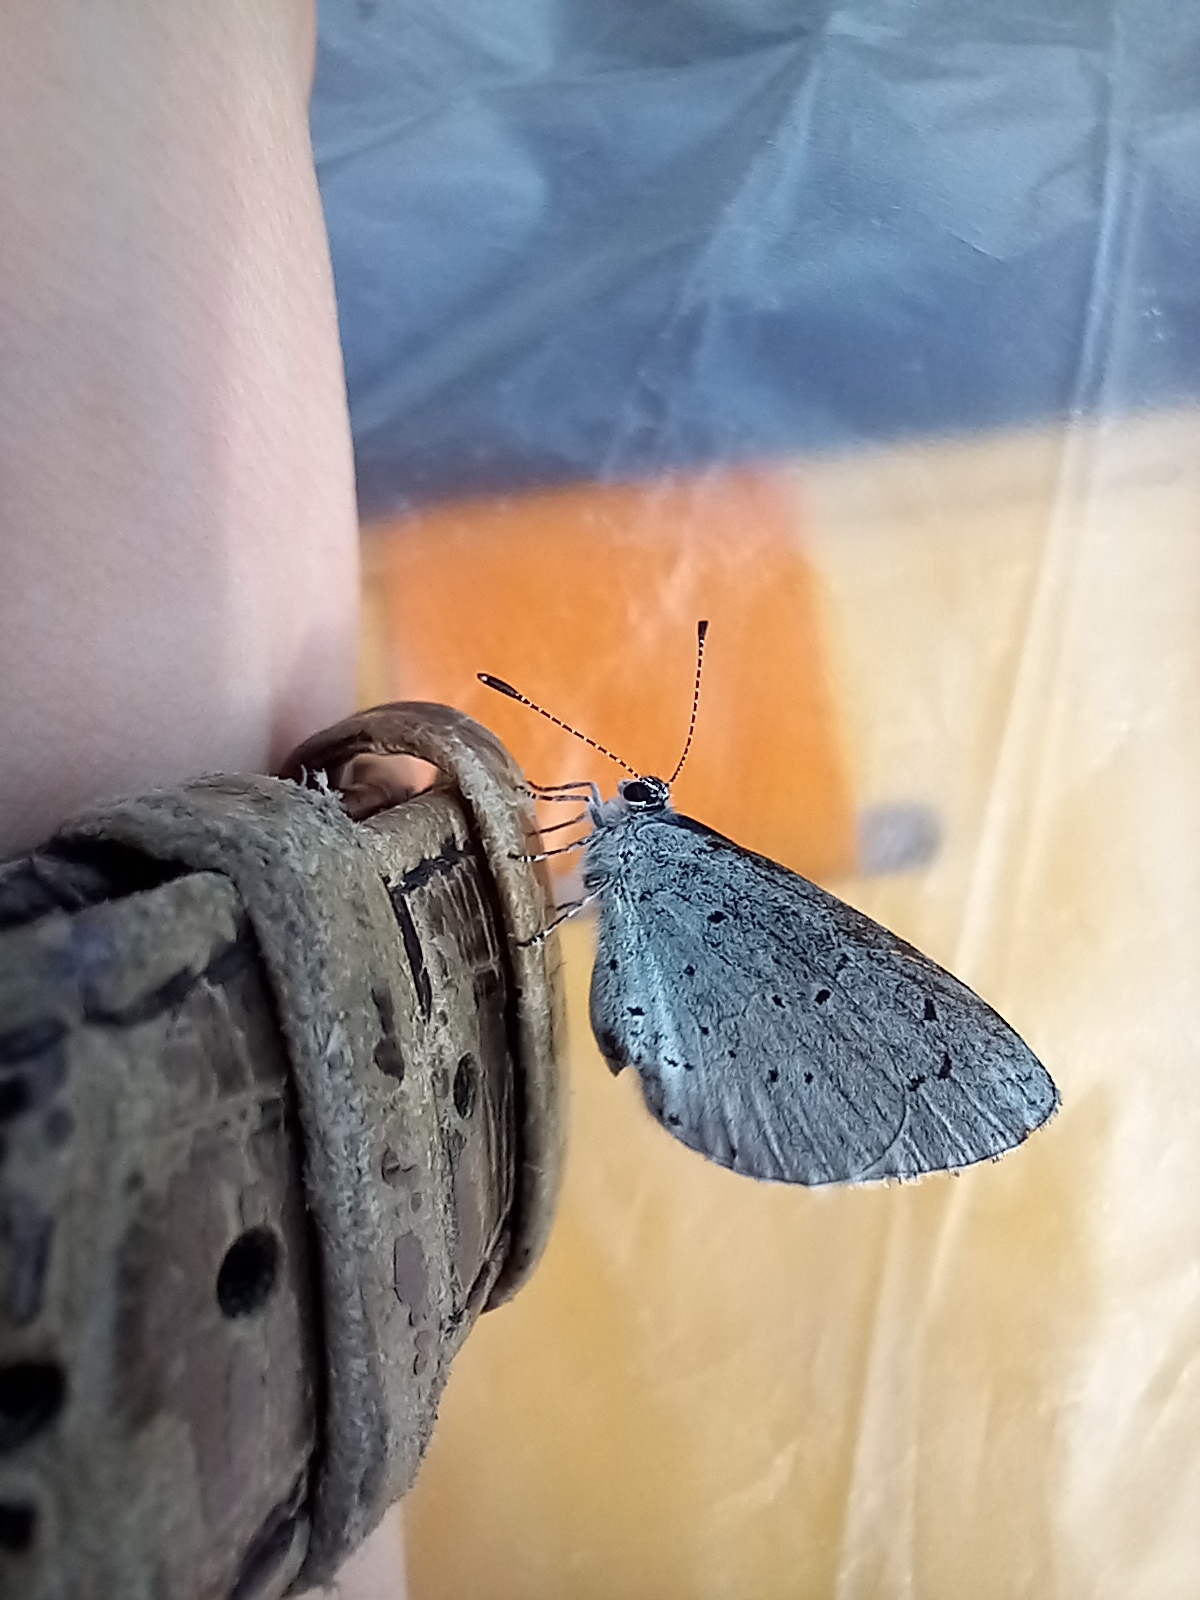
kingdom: Animalia
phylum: Arthropoda
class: Insecta
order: Lepidoptera
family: Lycaenidae
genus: Celastrina
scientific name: Celastrina argiolus
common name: Holly blue
